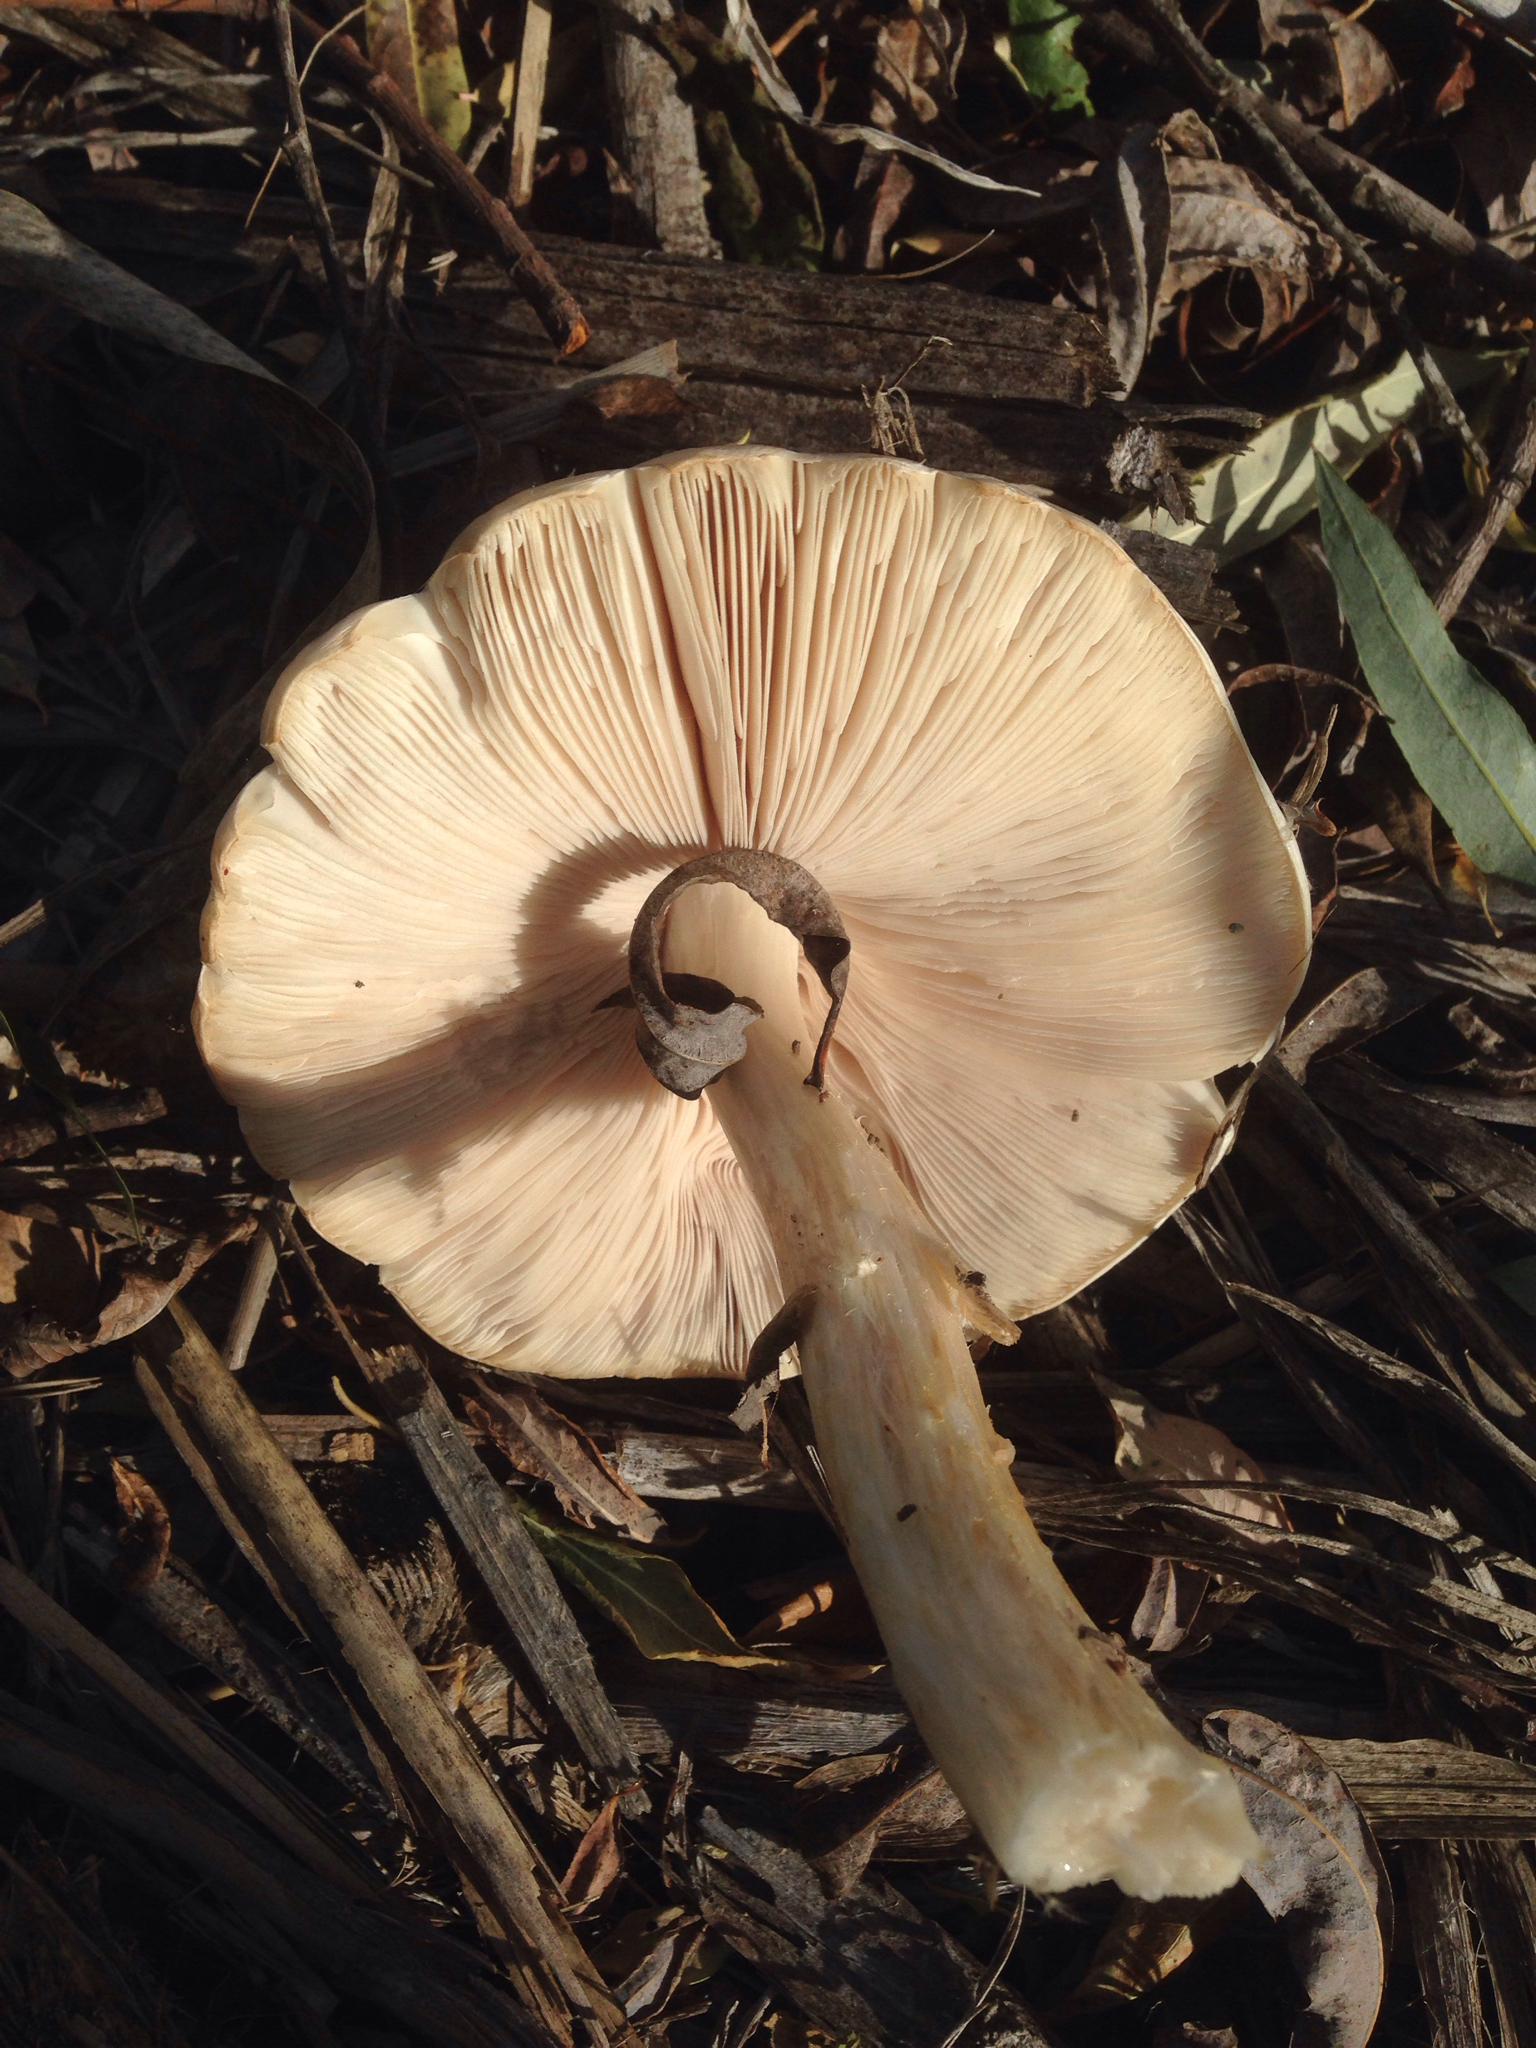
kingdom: Fungi
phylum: Basidiomycota
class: Agaricomycetes
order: Agaricales
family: Pluteaceae
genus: Volvopluteus
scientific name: Volvopluteus gloiocephalus
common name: Stubble rosegill
